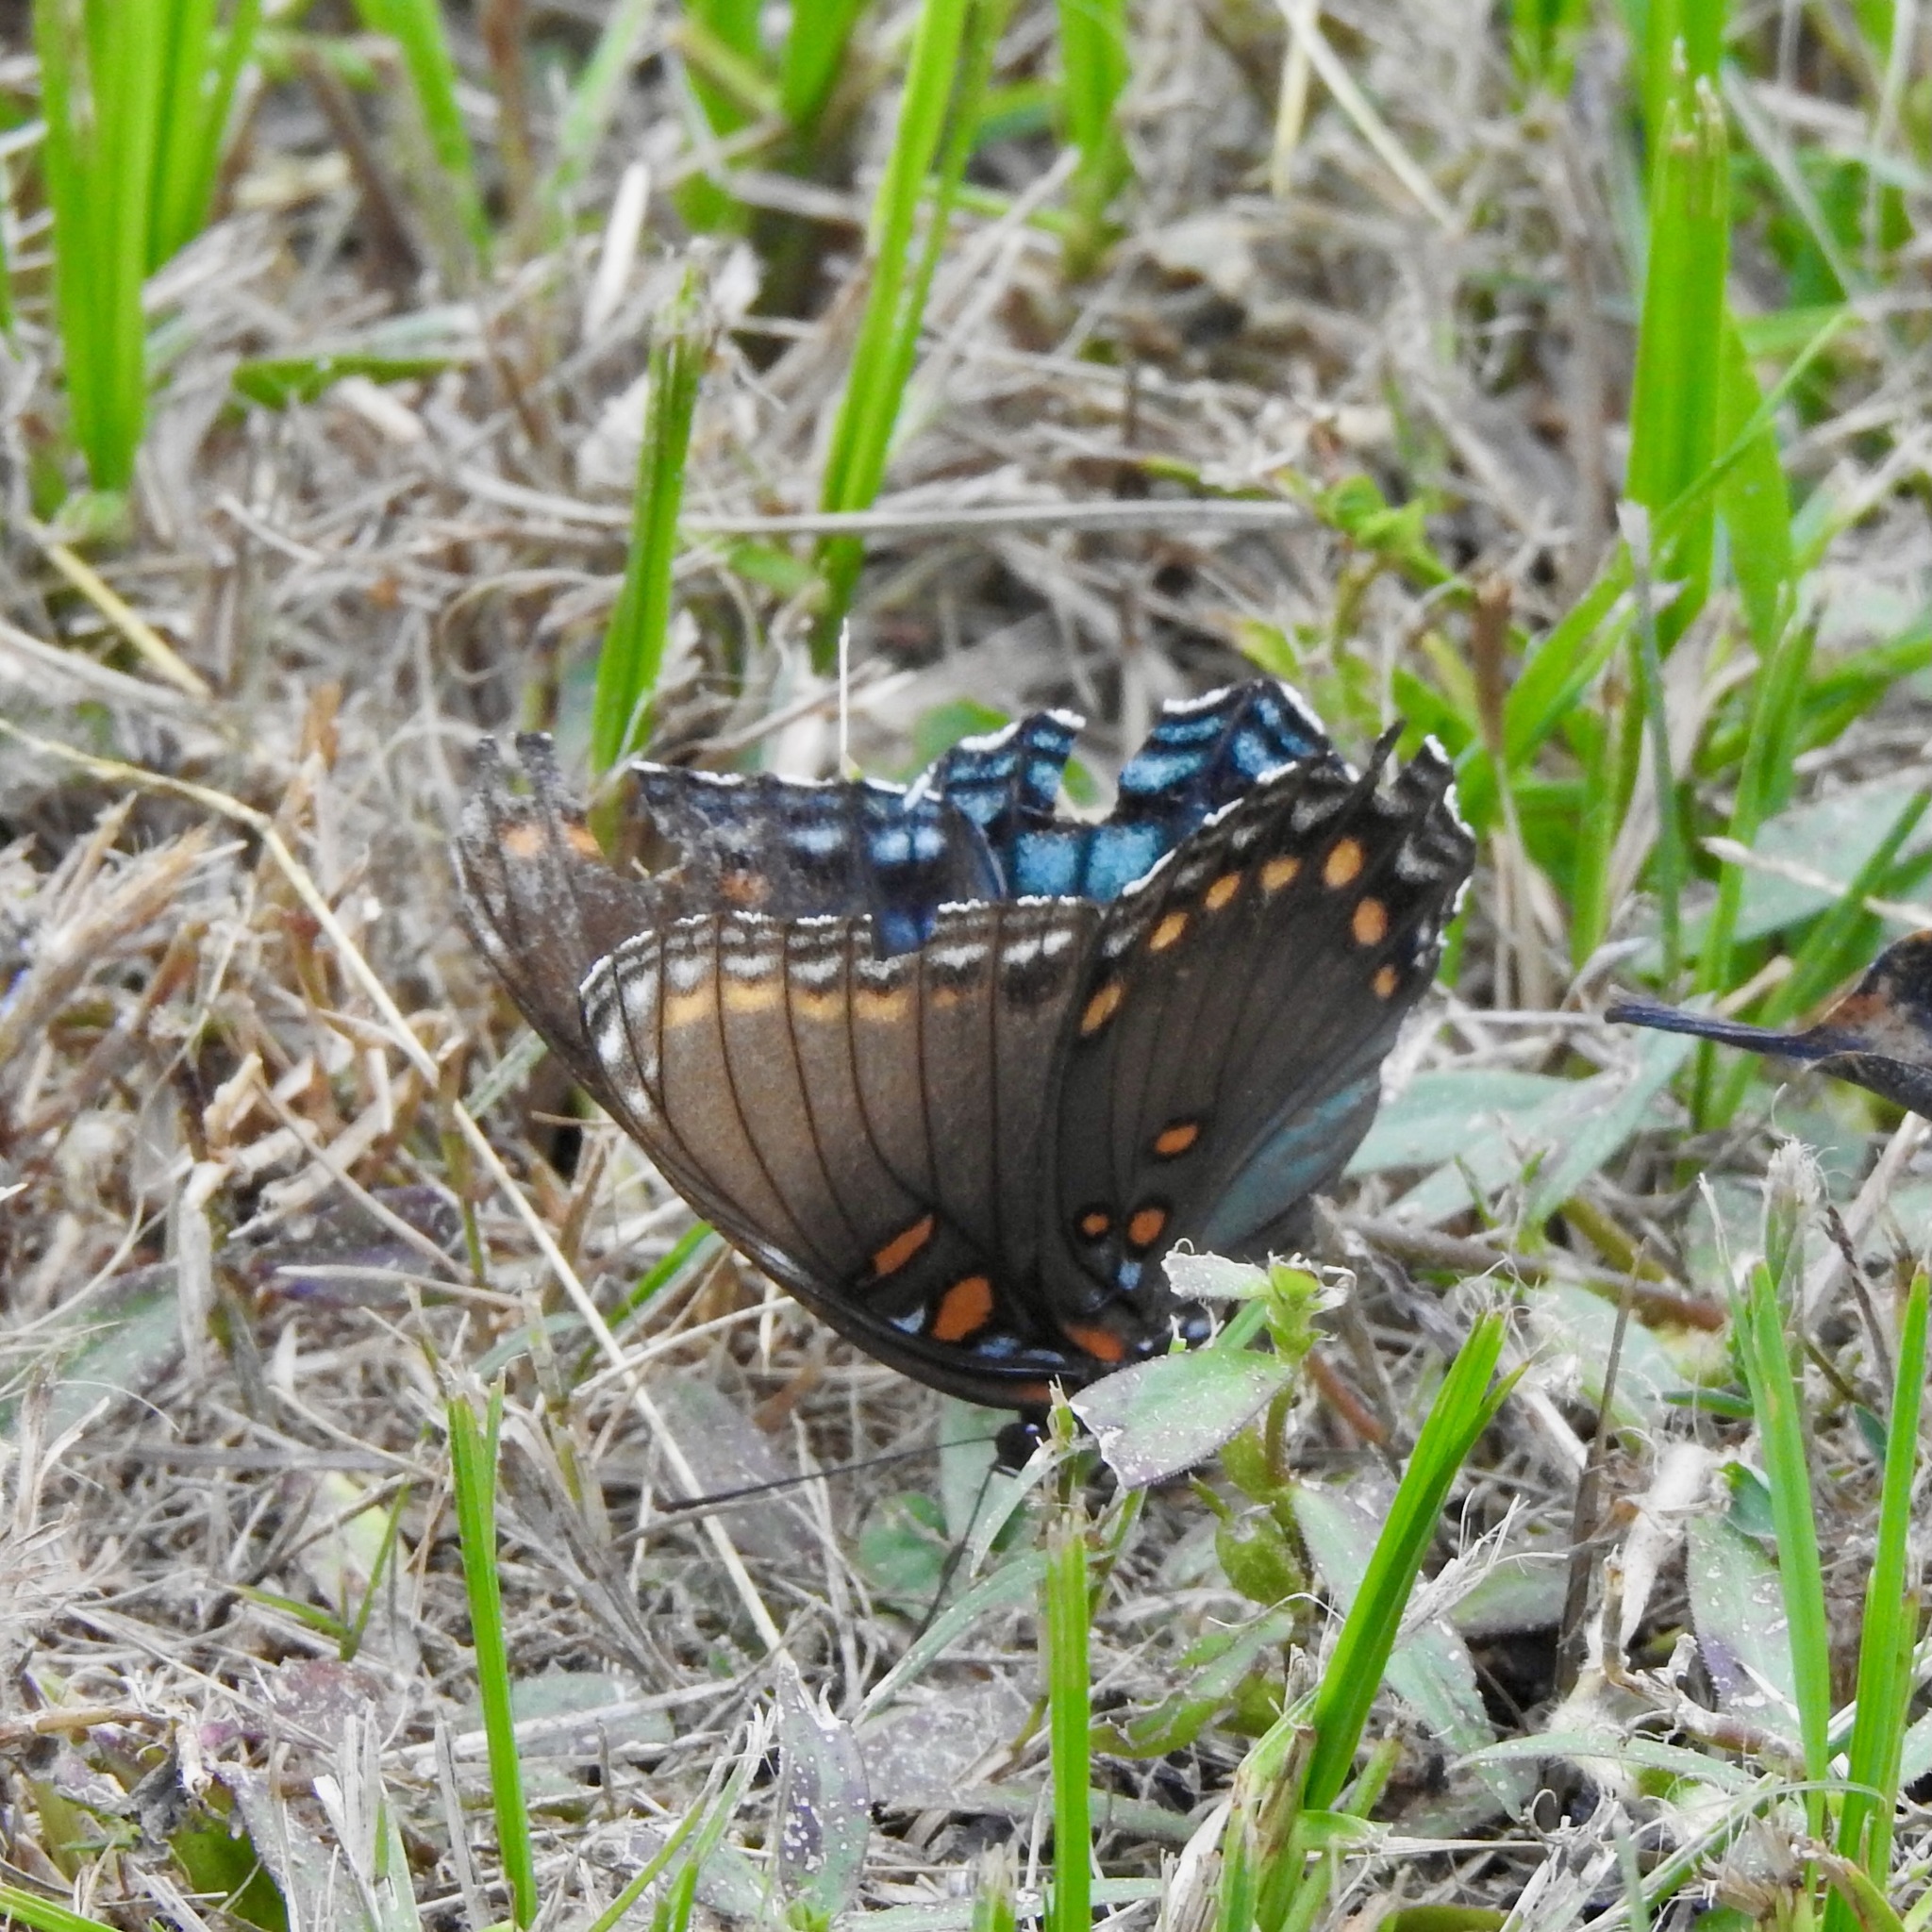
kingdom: Animalia
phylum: Arthropoda
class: Insecta
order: Lepidoptera
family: Nymphalidae
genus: Limenitis
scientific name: Limenitis astyanax
